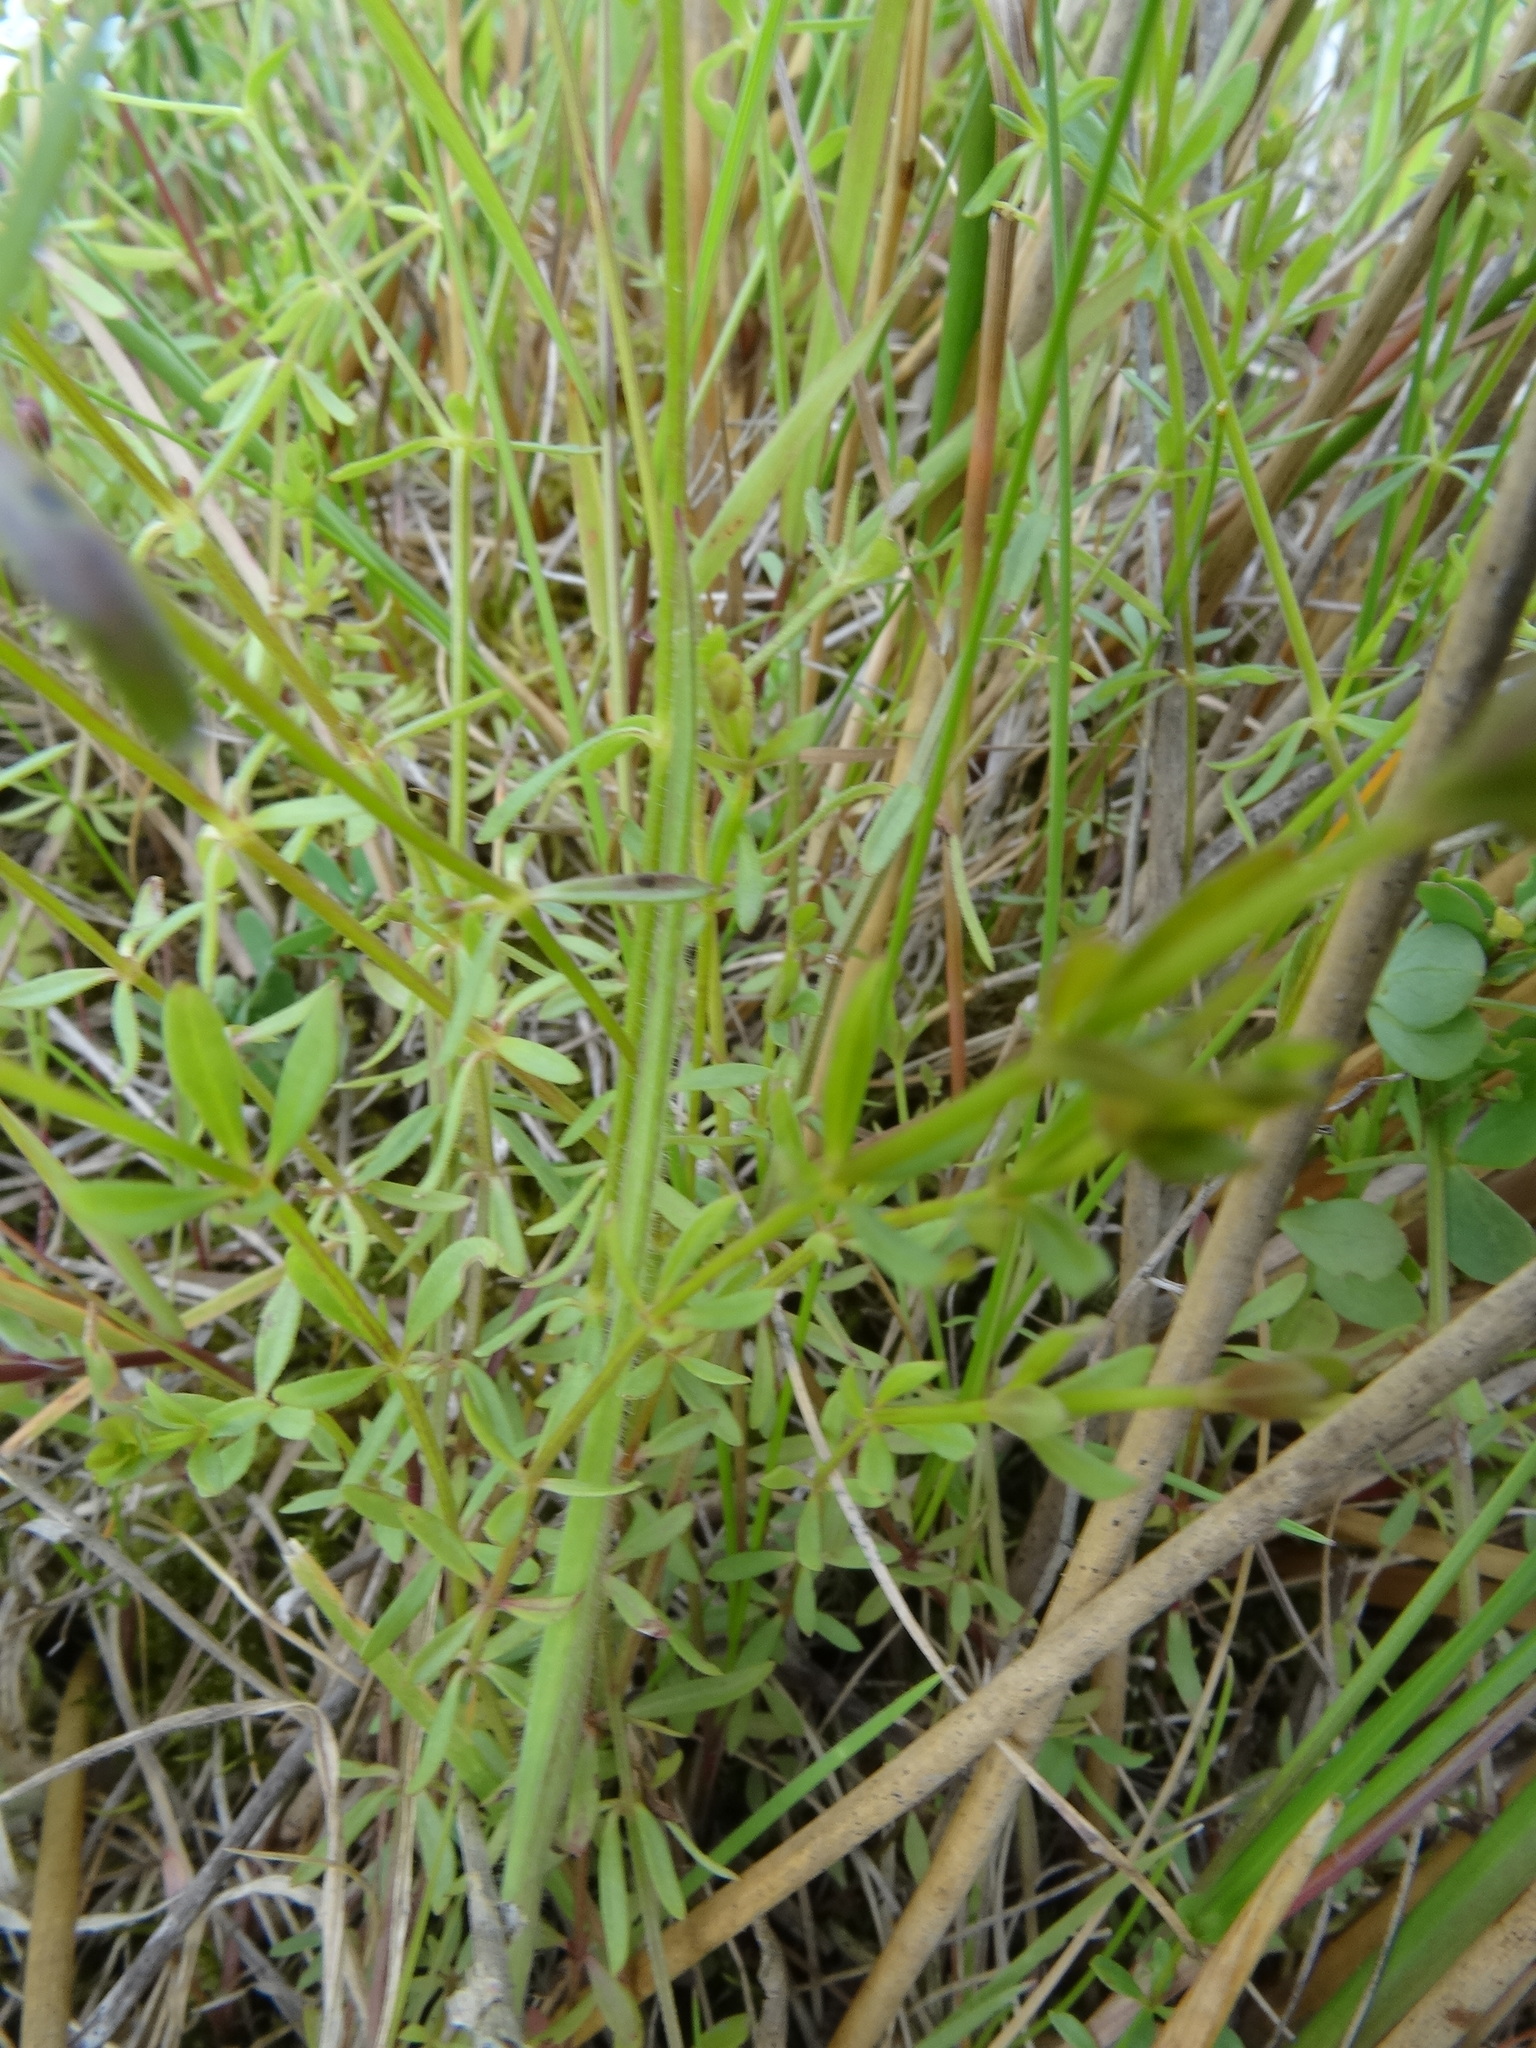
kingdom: Plantae
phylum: Tracheophyta
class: Magnoliopsida
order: Gentianales
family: Rubiaceae
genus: Galium
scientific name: Galium palustre
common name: Common marsh-bedstraw
